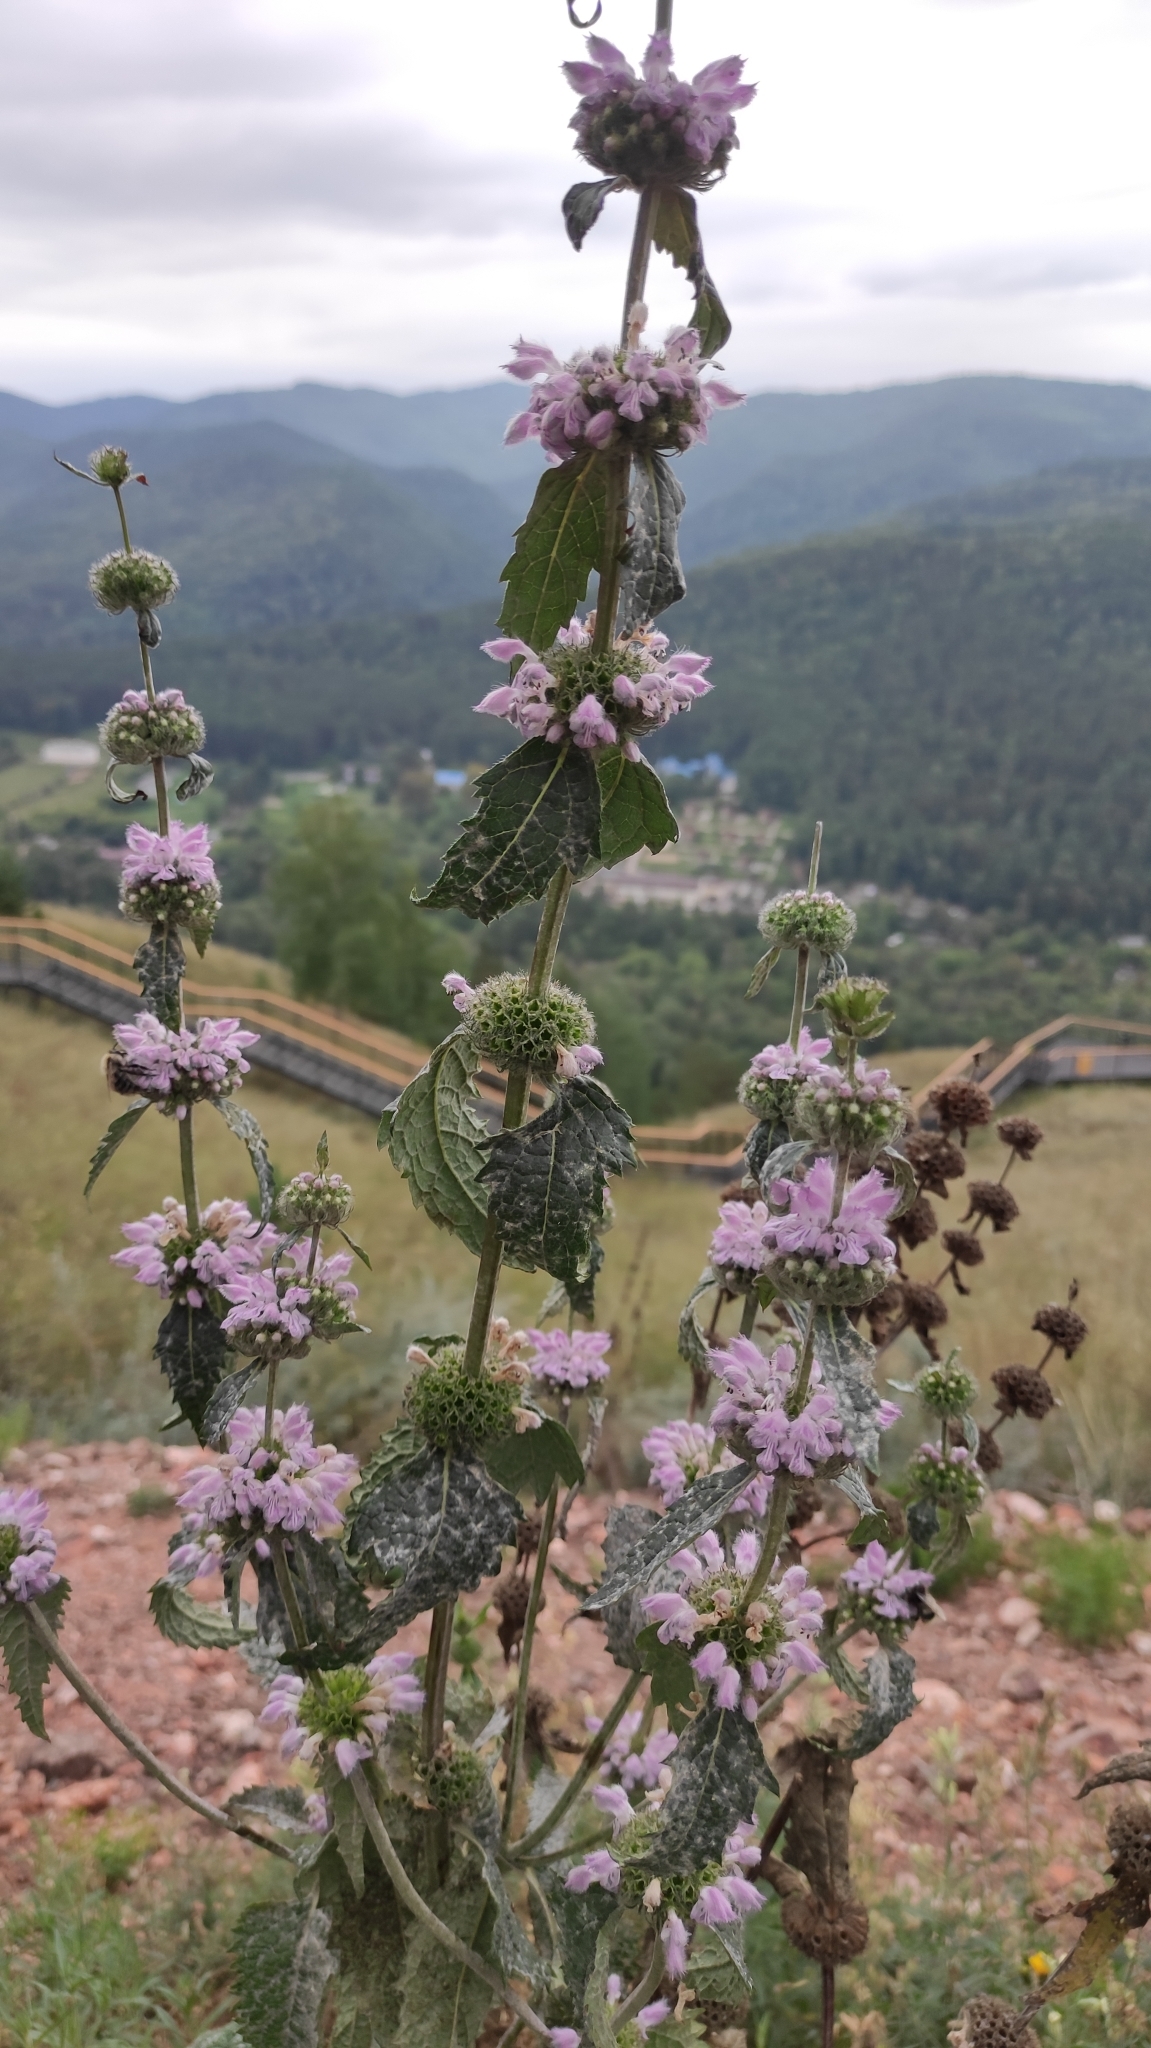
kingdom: Plantae
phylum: Tracheophyta
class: Magnoliopsida
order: Lamiales
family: Lamiaceae
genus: Phlomoides
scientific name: Phlomoides tuberosa
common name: Tuberous jerusalem sage
